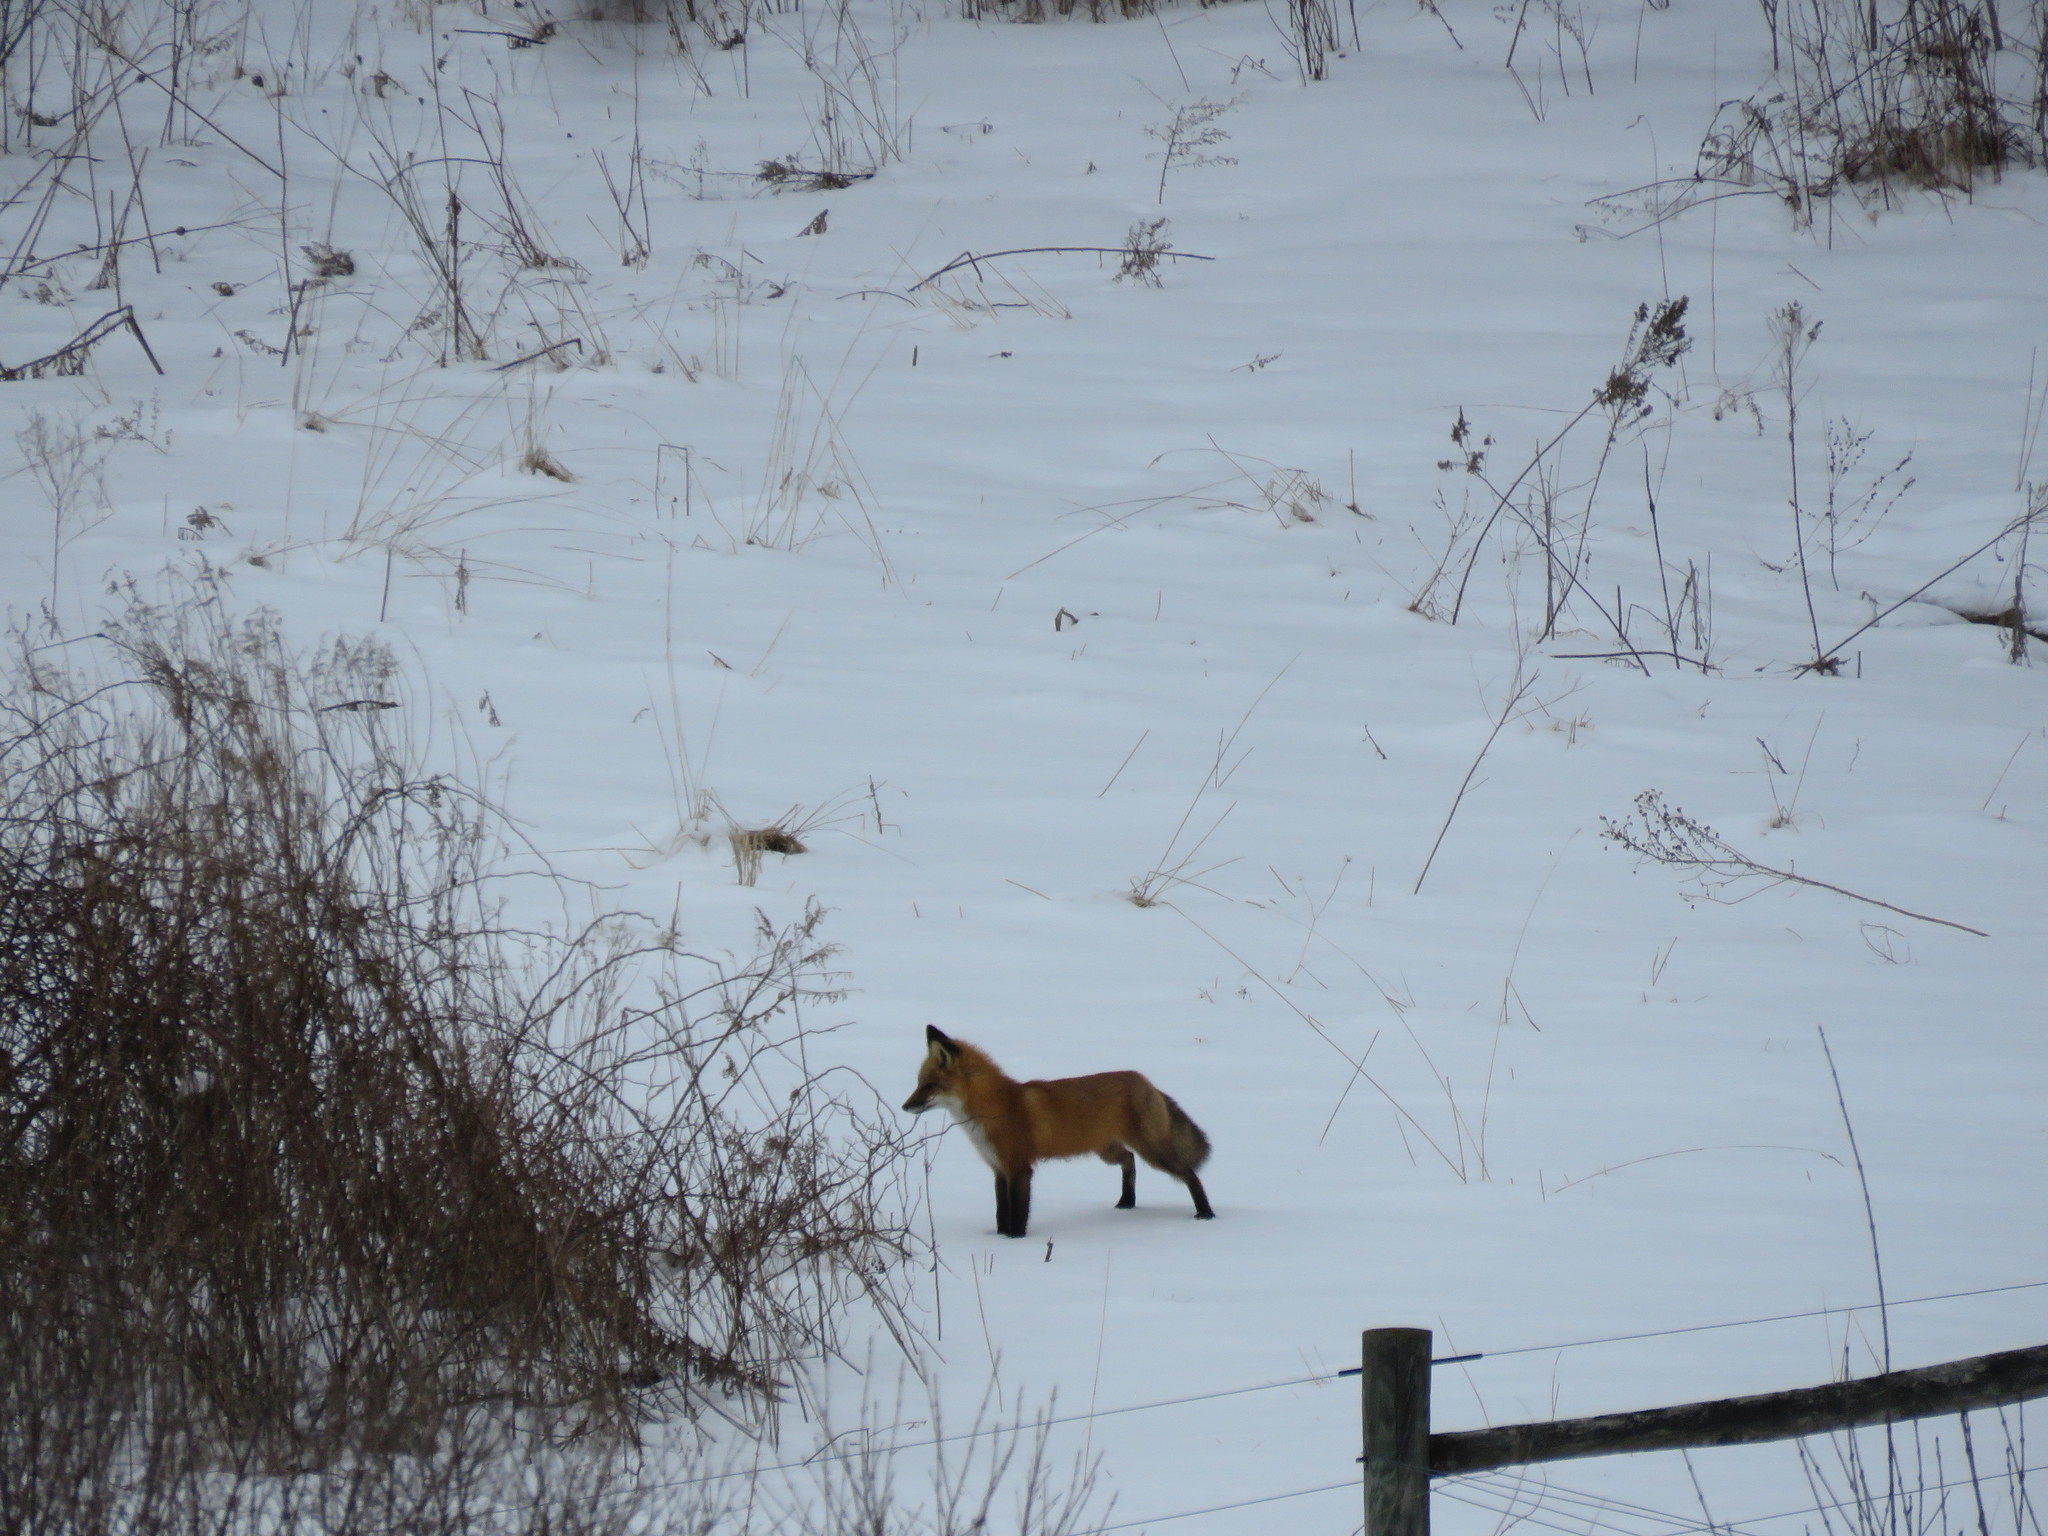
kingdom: Animalia
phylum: Chordata
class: Mammalia
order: Carnivora
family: Canidae
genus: Vulpes
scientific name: Vulpes vulpes
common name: Red fox
